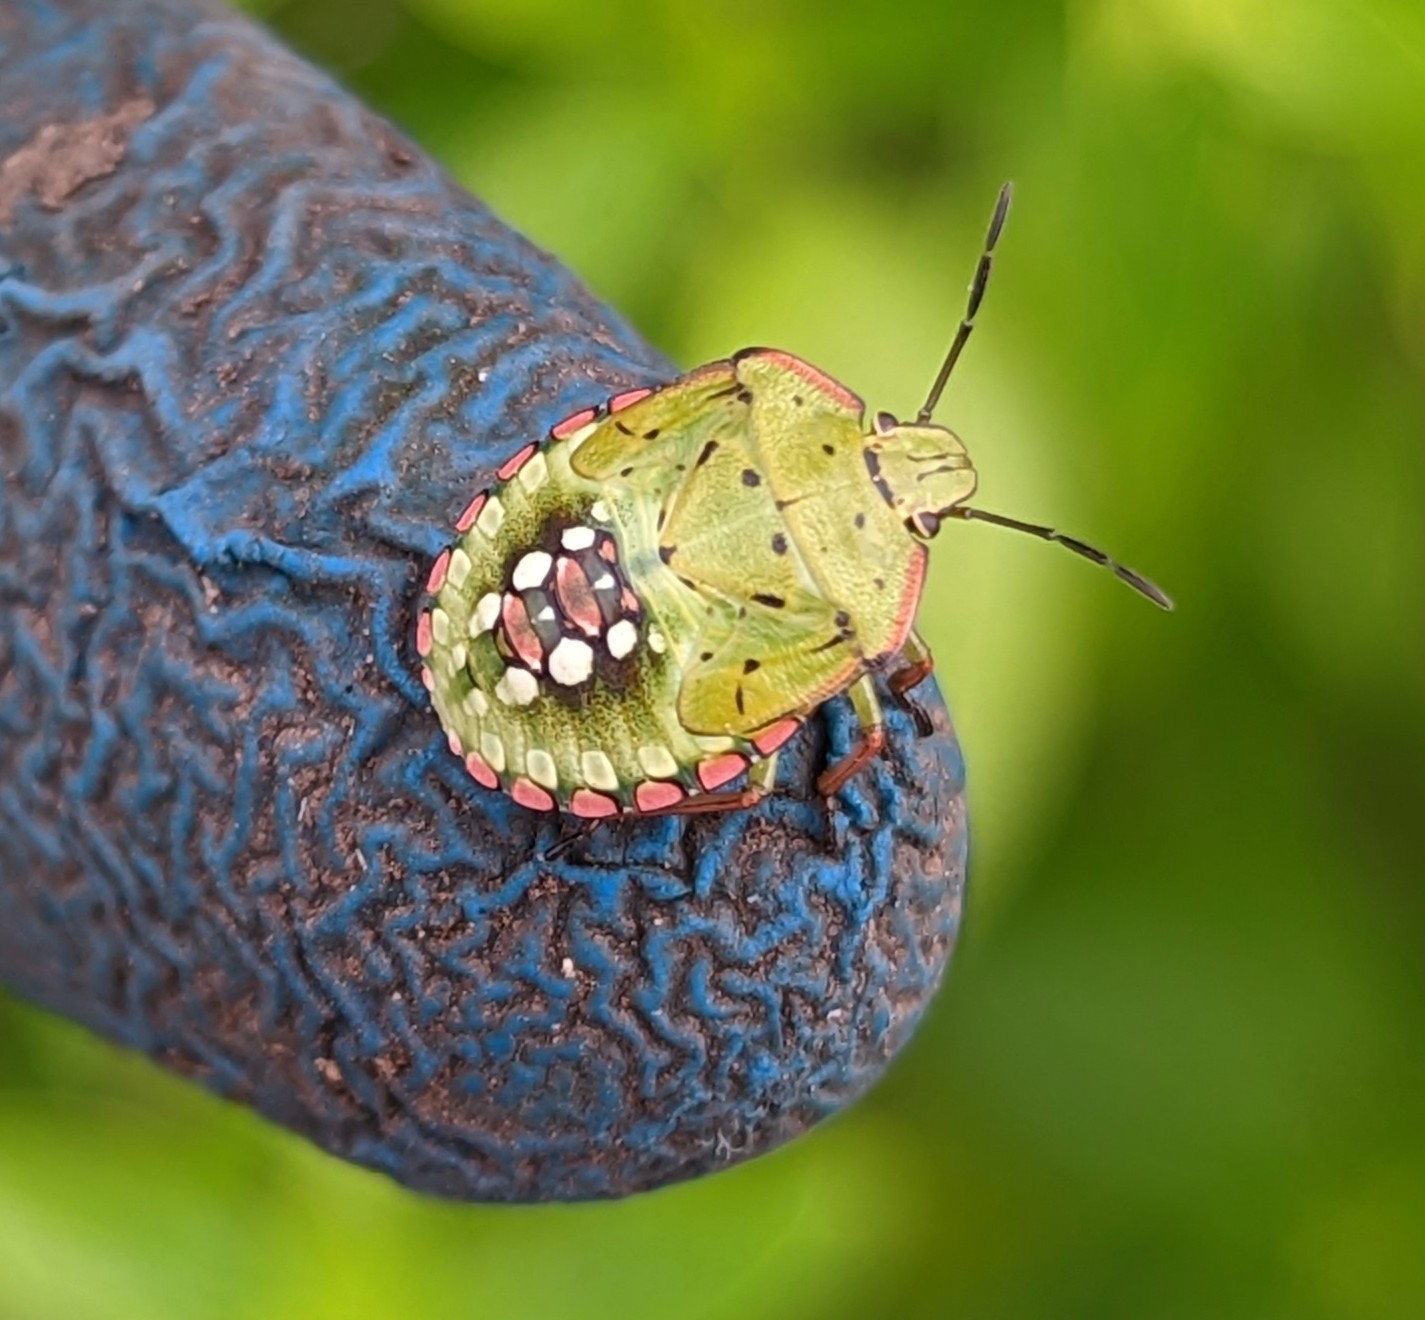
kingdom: Animalia
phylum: Arthropoda
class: Insecta
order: Hemiptera
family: Pentatomidae
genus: Nezara
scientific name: Nezara viridula
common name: Southern green stink bug
